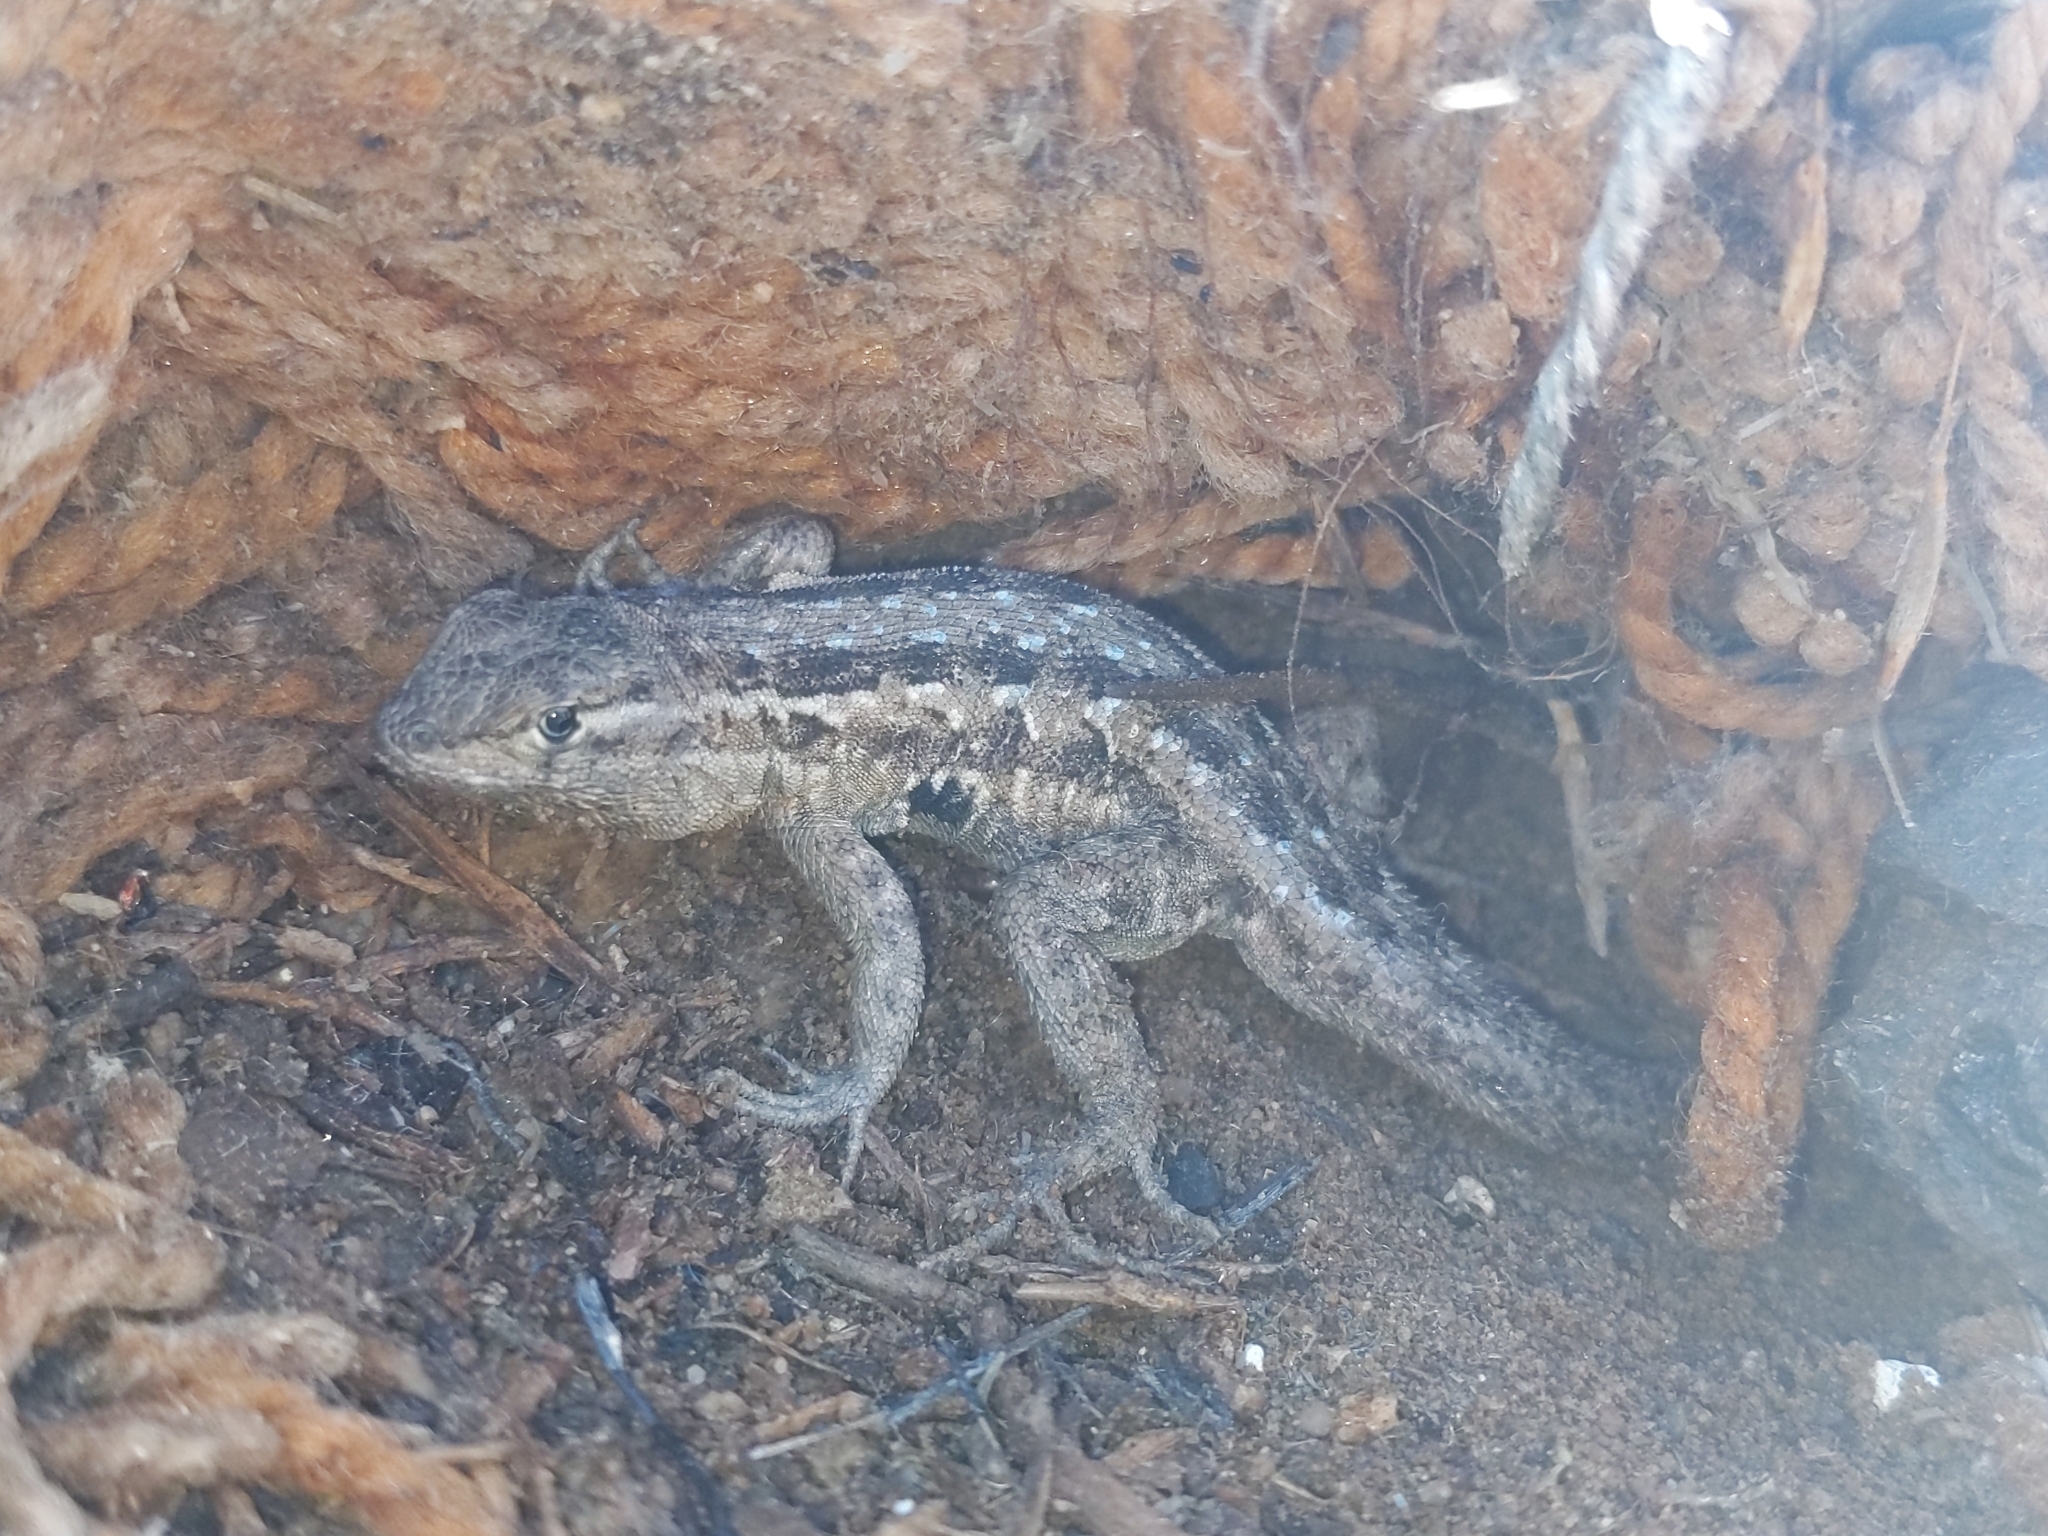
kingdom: Animalia
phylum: Chordata
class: Squamata
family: Phrynosomatidae
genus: Uta
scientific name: Uta stansburiana
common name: Side-blotched lizard
